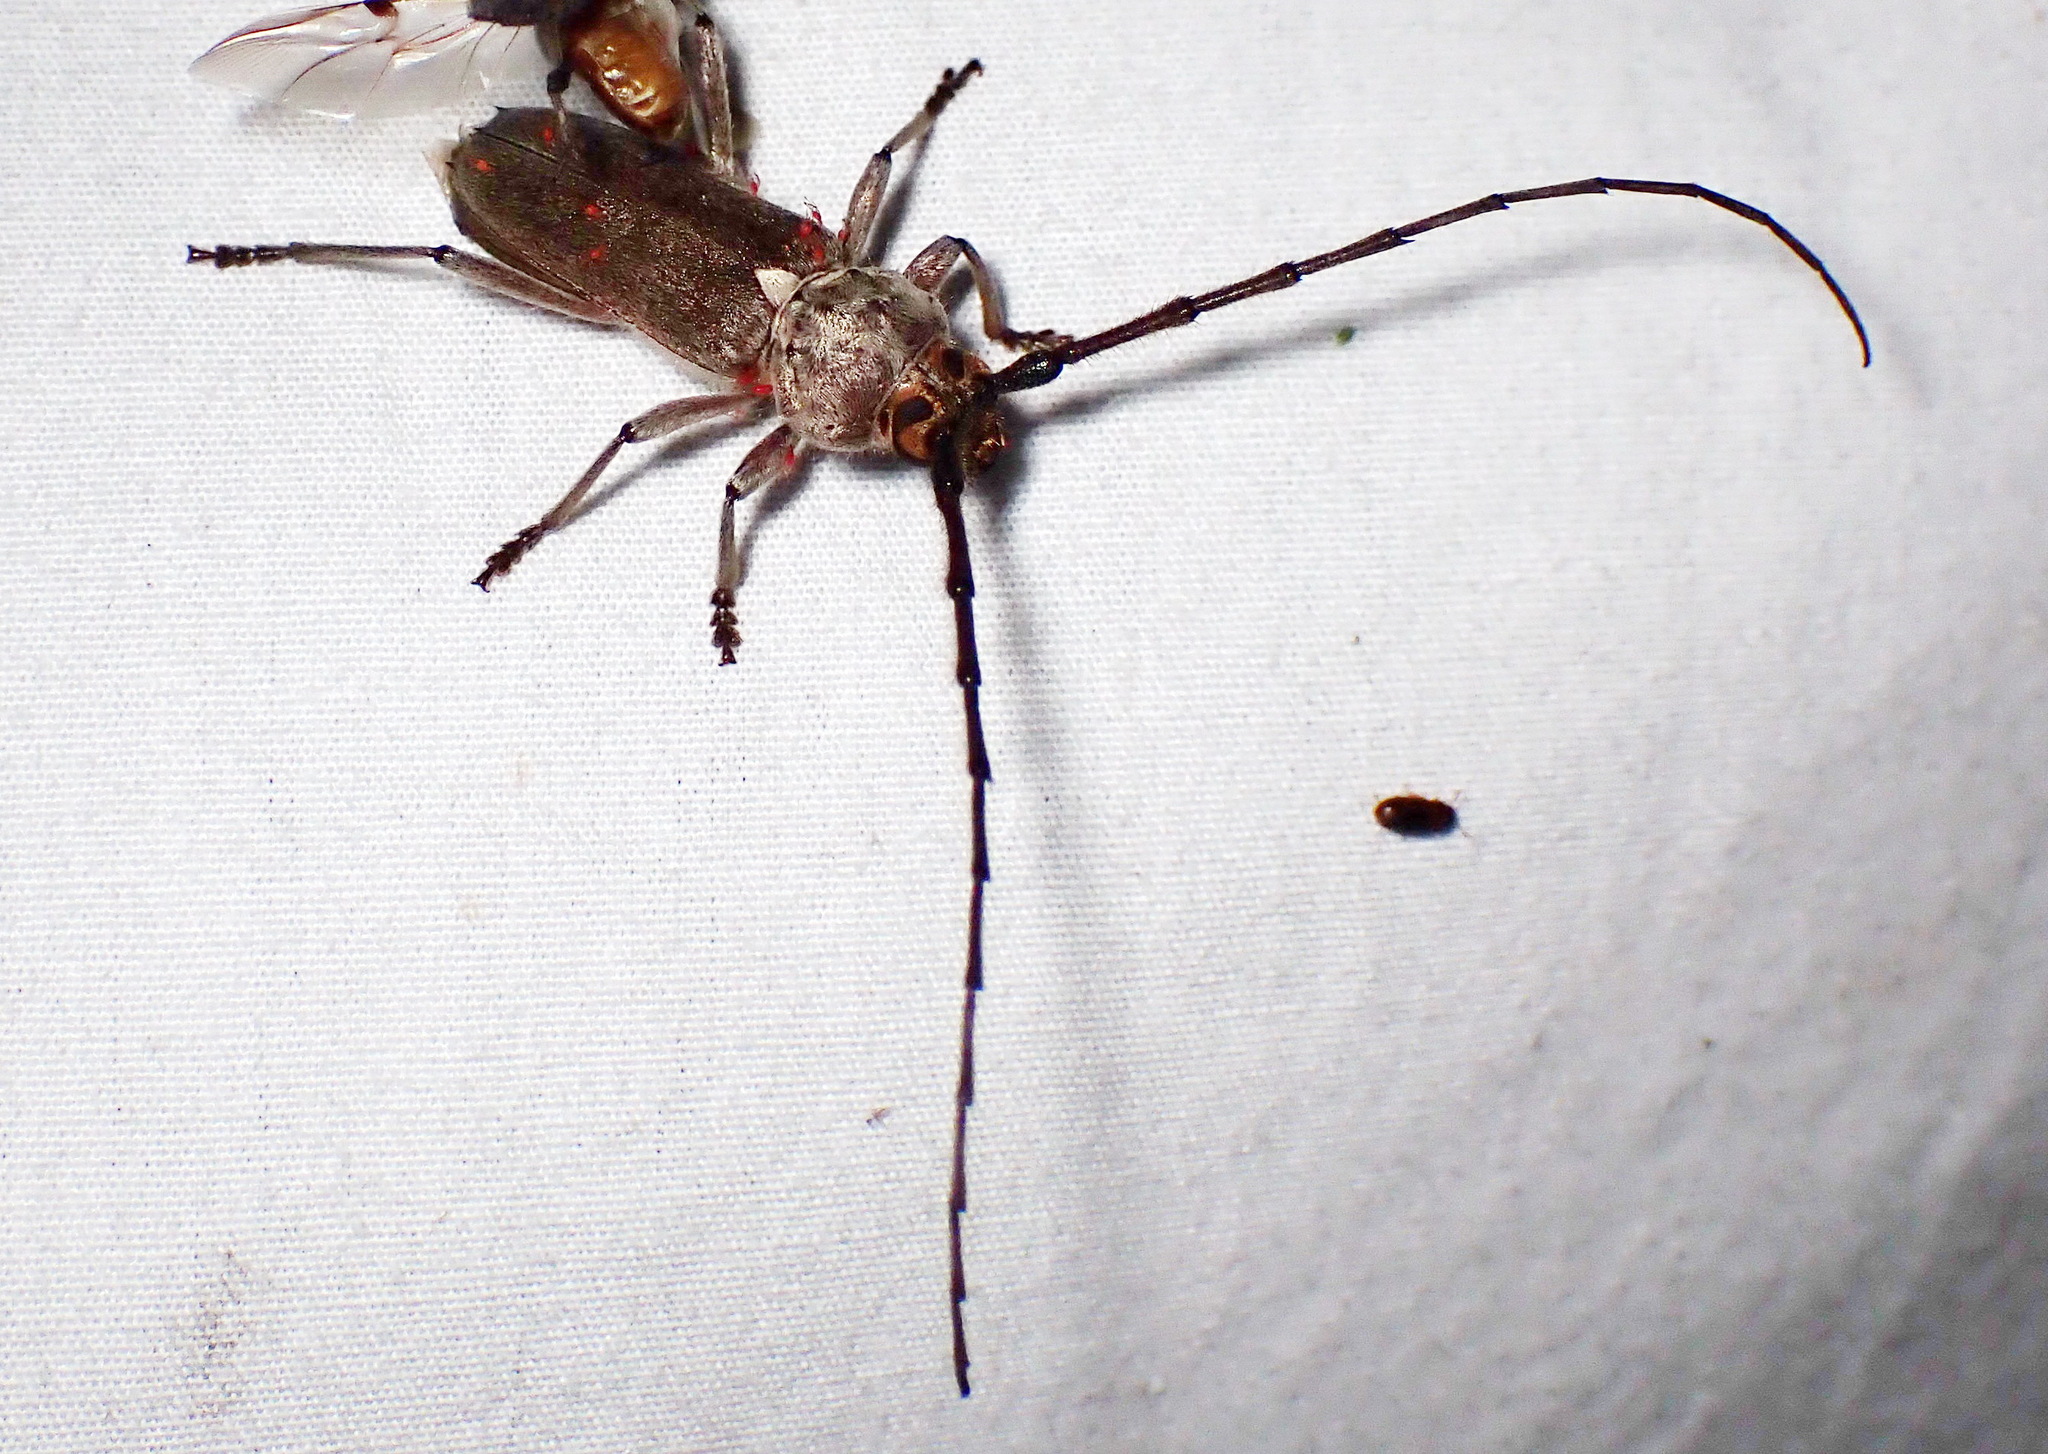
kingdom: Animalia
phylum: Arthropoda
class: Insecta
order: Coleoptera
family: Cerambycidae
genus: Gnaphalodes
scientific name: Gnaphalodes trachyderoides
